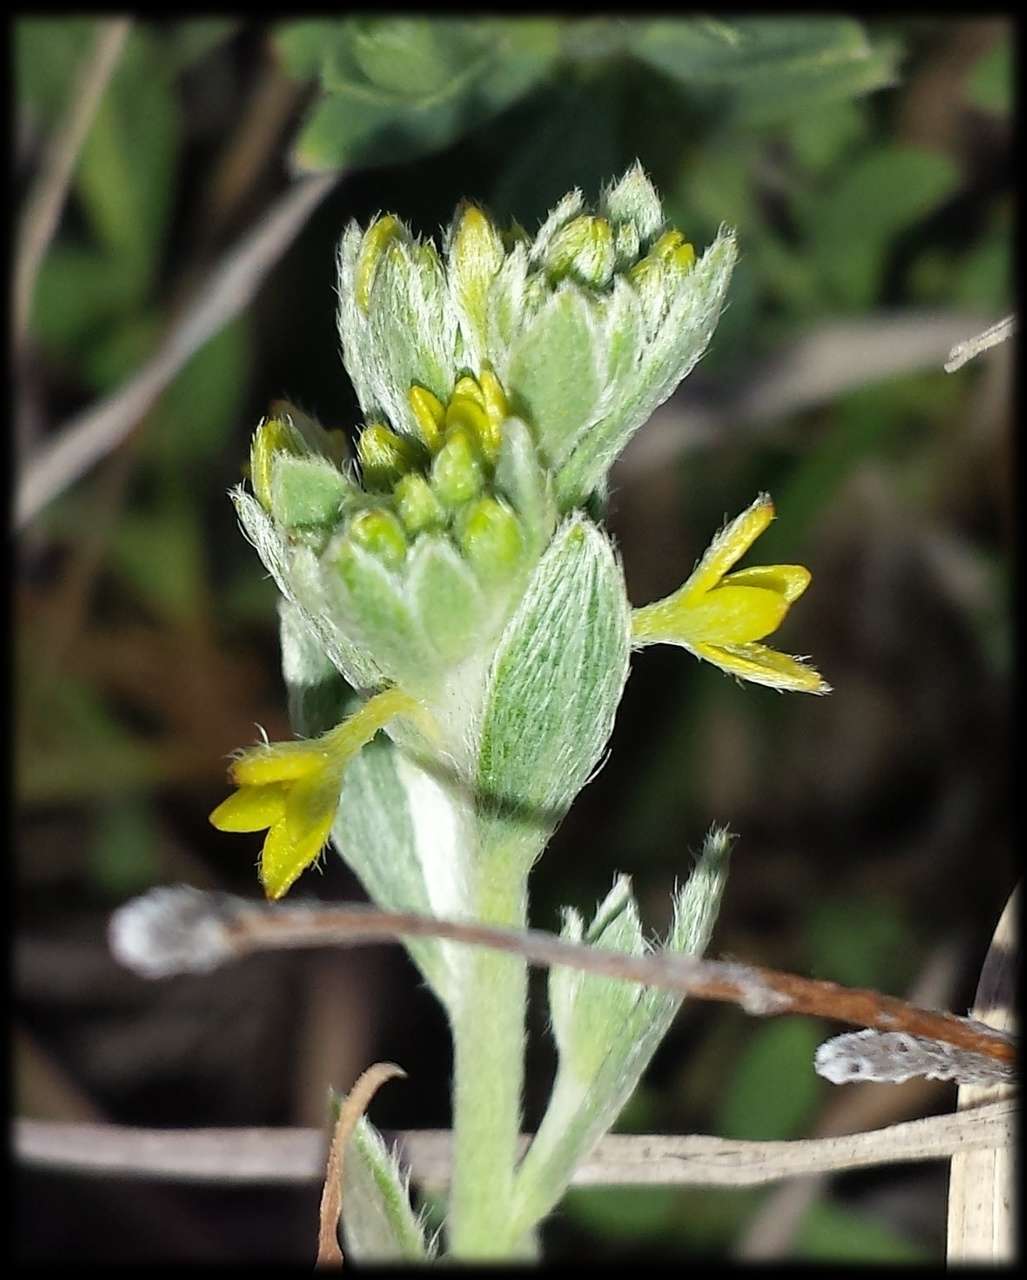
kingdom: Plantae
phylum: Tracheophyta
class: Magnoliopsida
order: Malvales
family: Thymelaeaceae
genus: Pimelea
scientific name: Pimelea curviflora
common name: Curved riceflower
